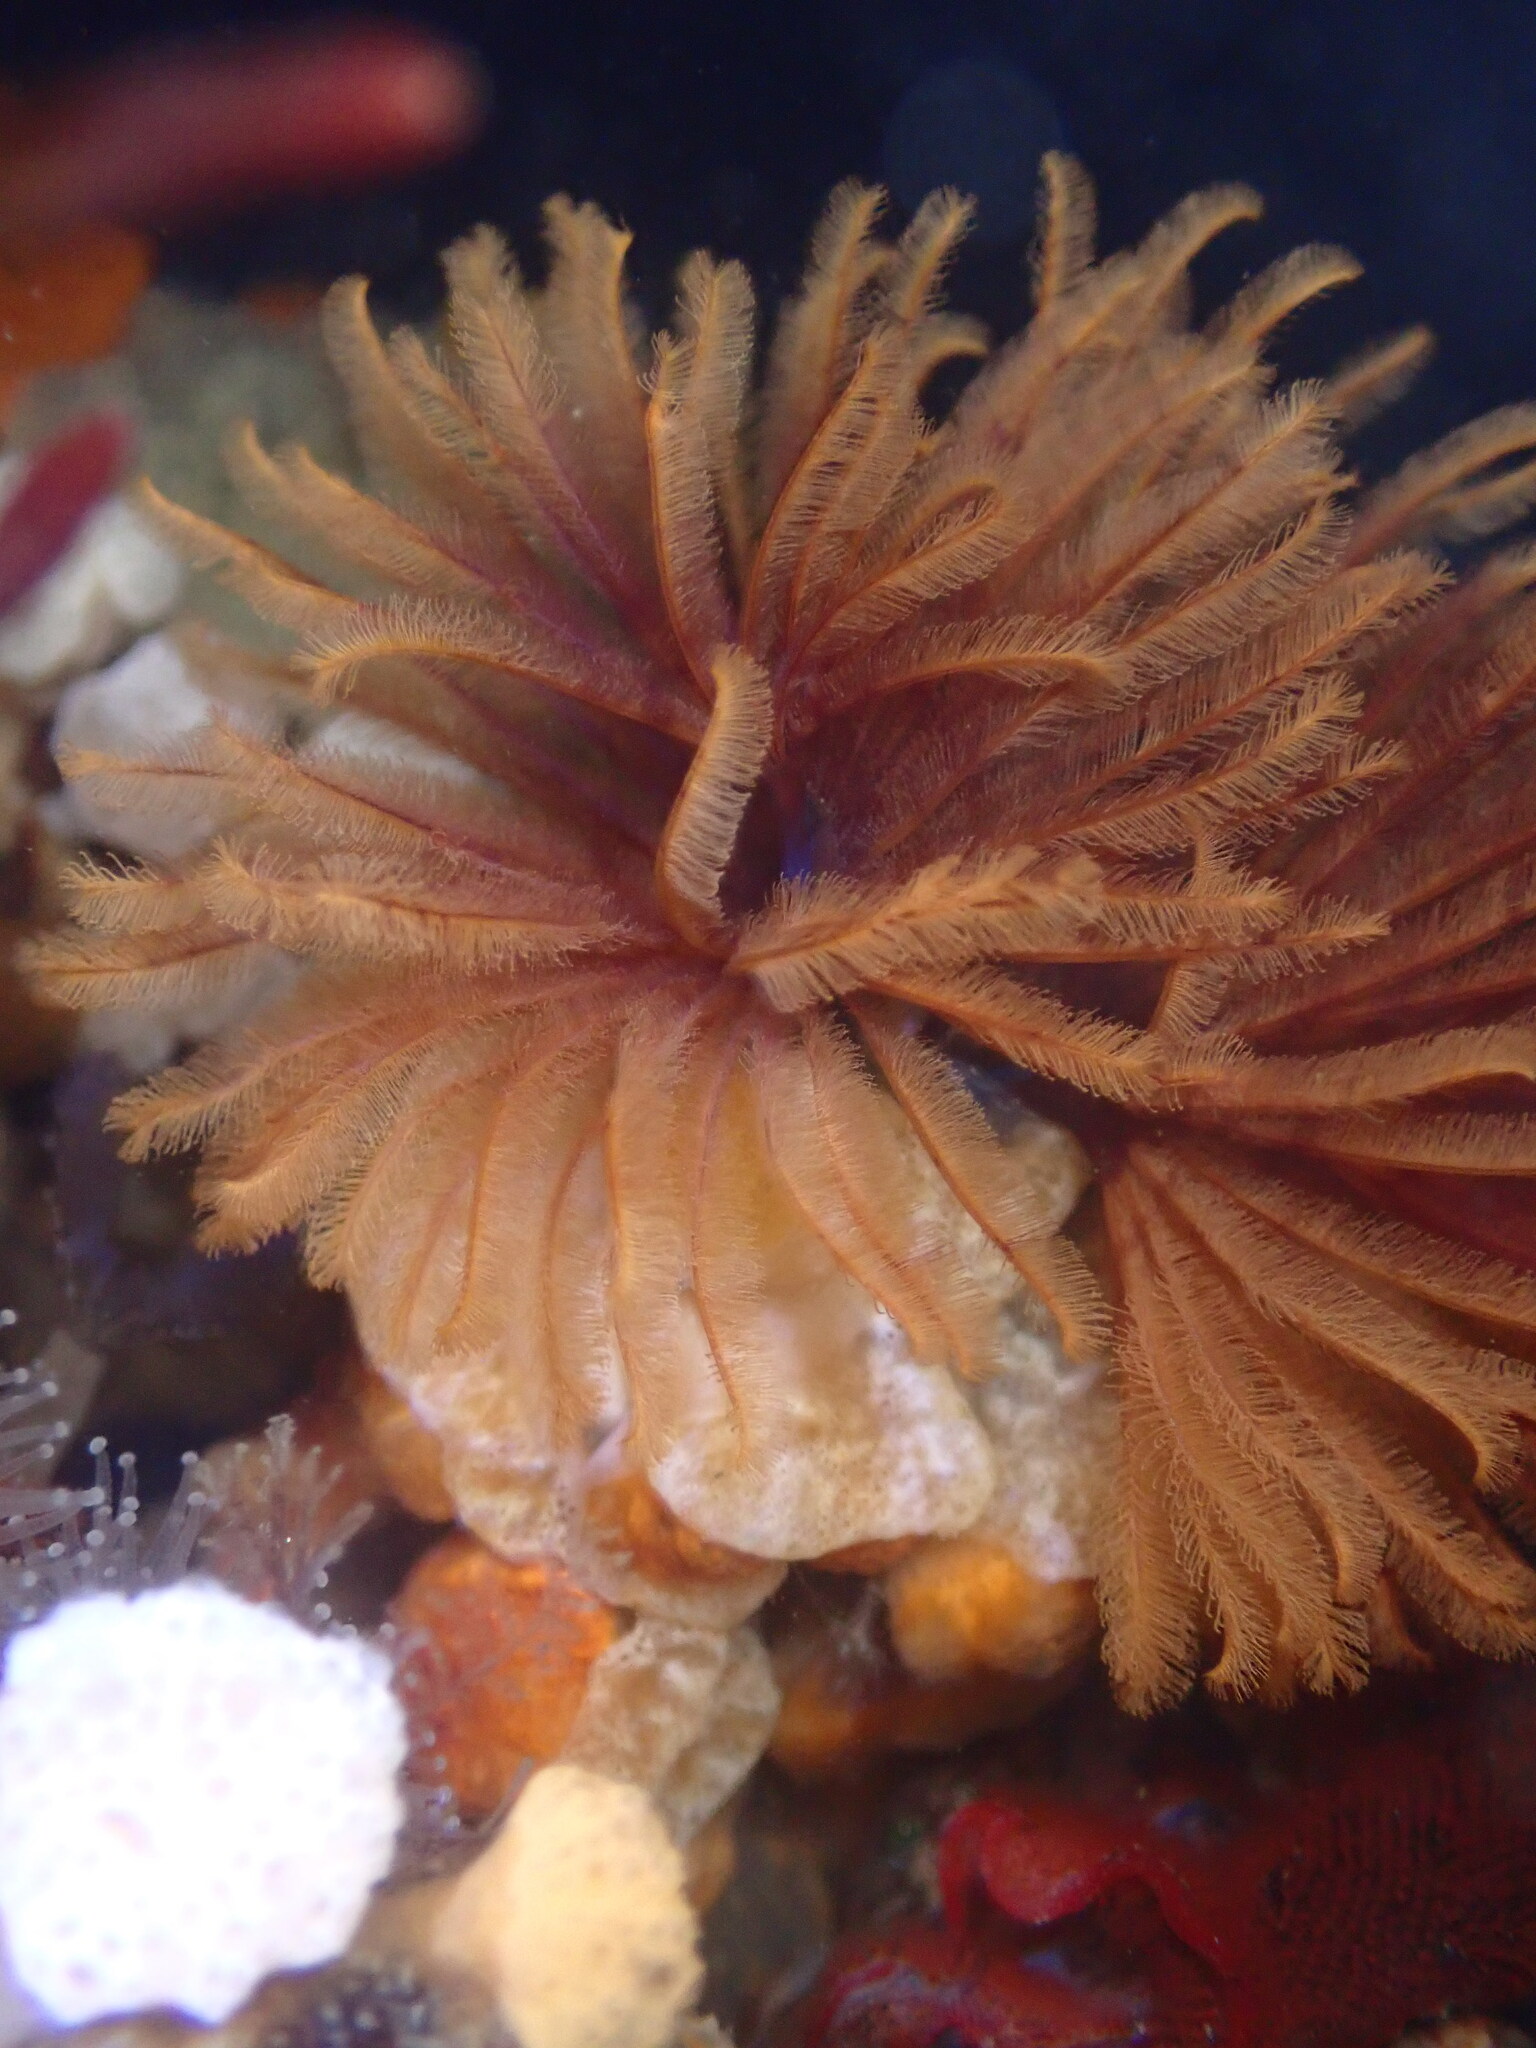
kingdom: Animalia
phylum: Annelida
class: Polychaeta
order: Sabellida
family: Sabellidae
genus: Eudistylia
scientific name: Eudistylia polymorpha
